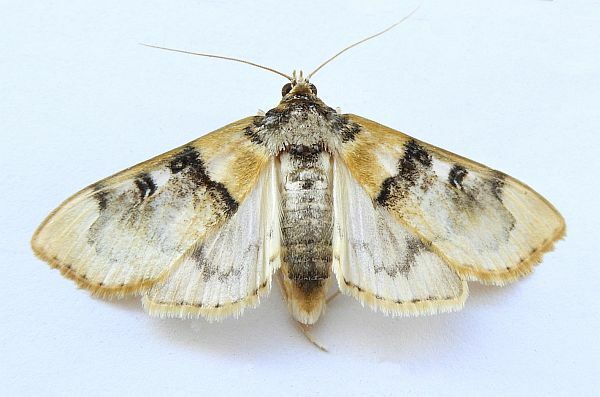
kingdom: Animalia
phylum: Arthropoda
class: Insecta
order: Lepidoptera
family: Crambidae
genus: Laniifera
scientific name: Laniifera cyclades
